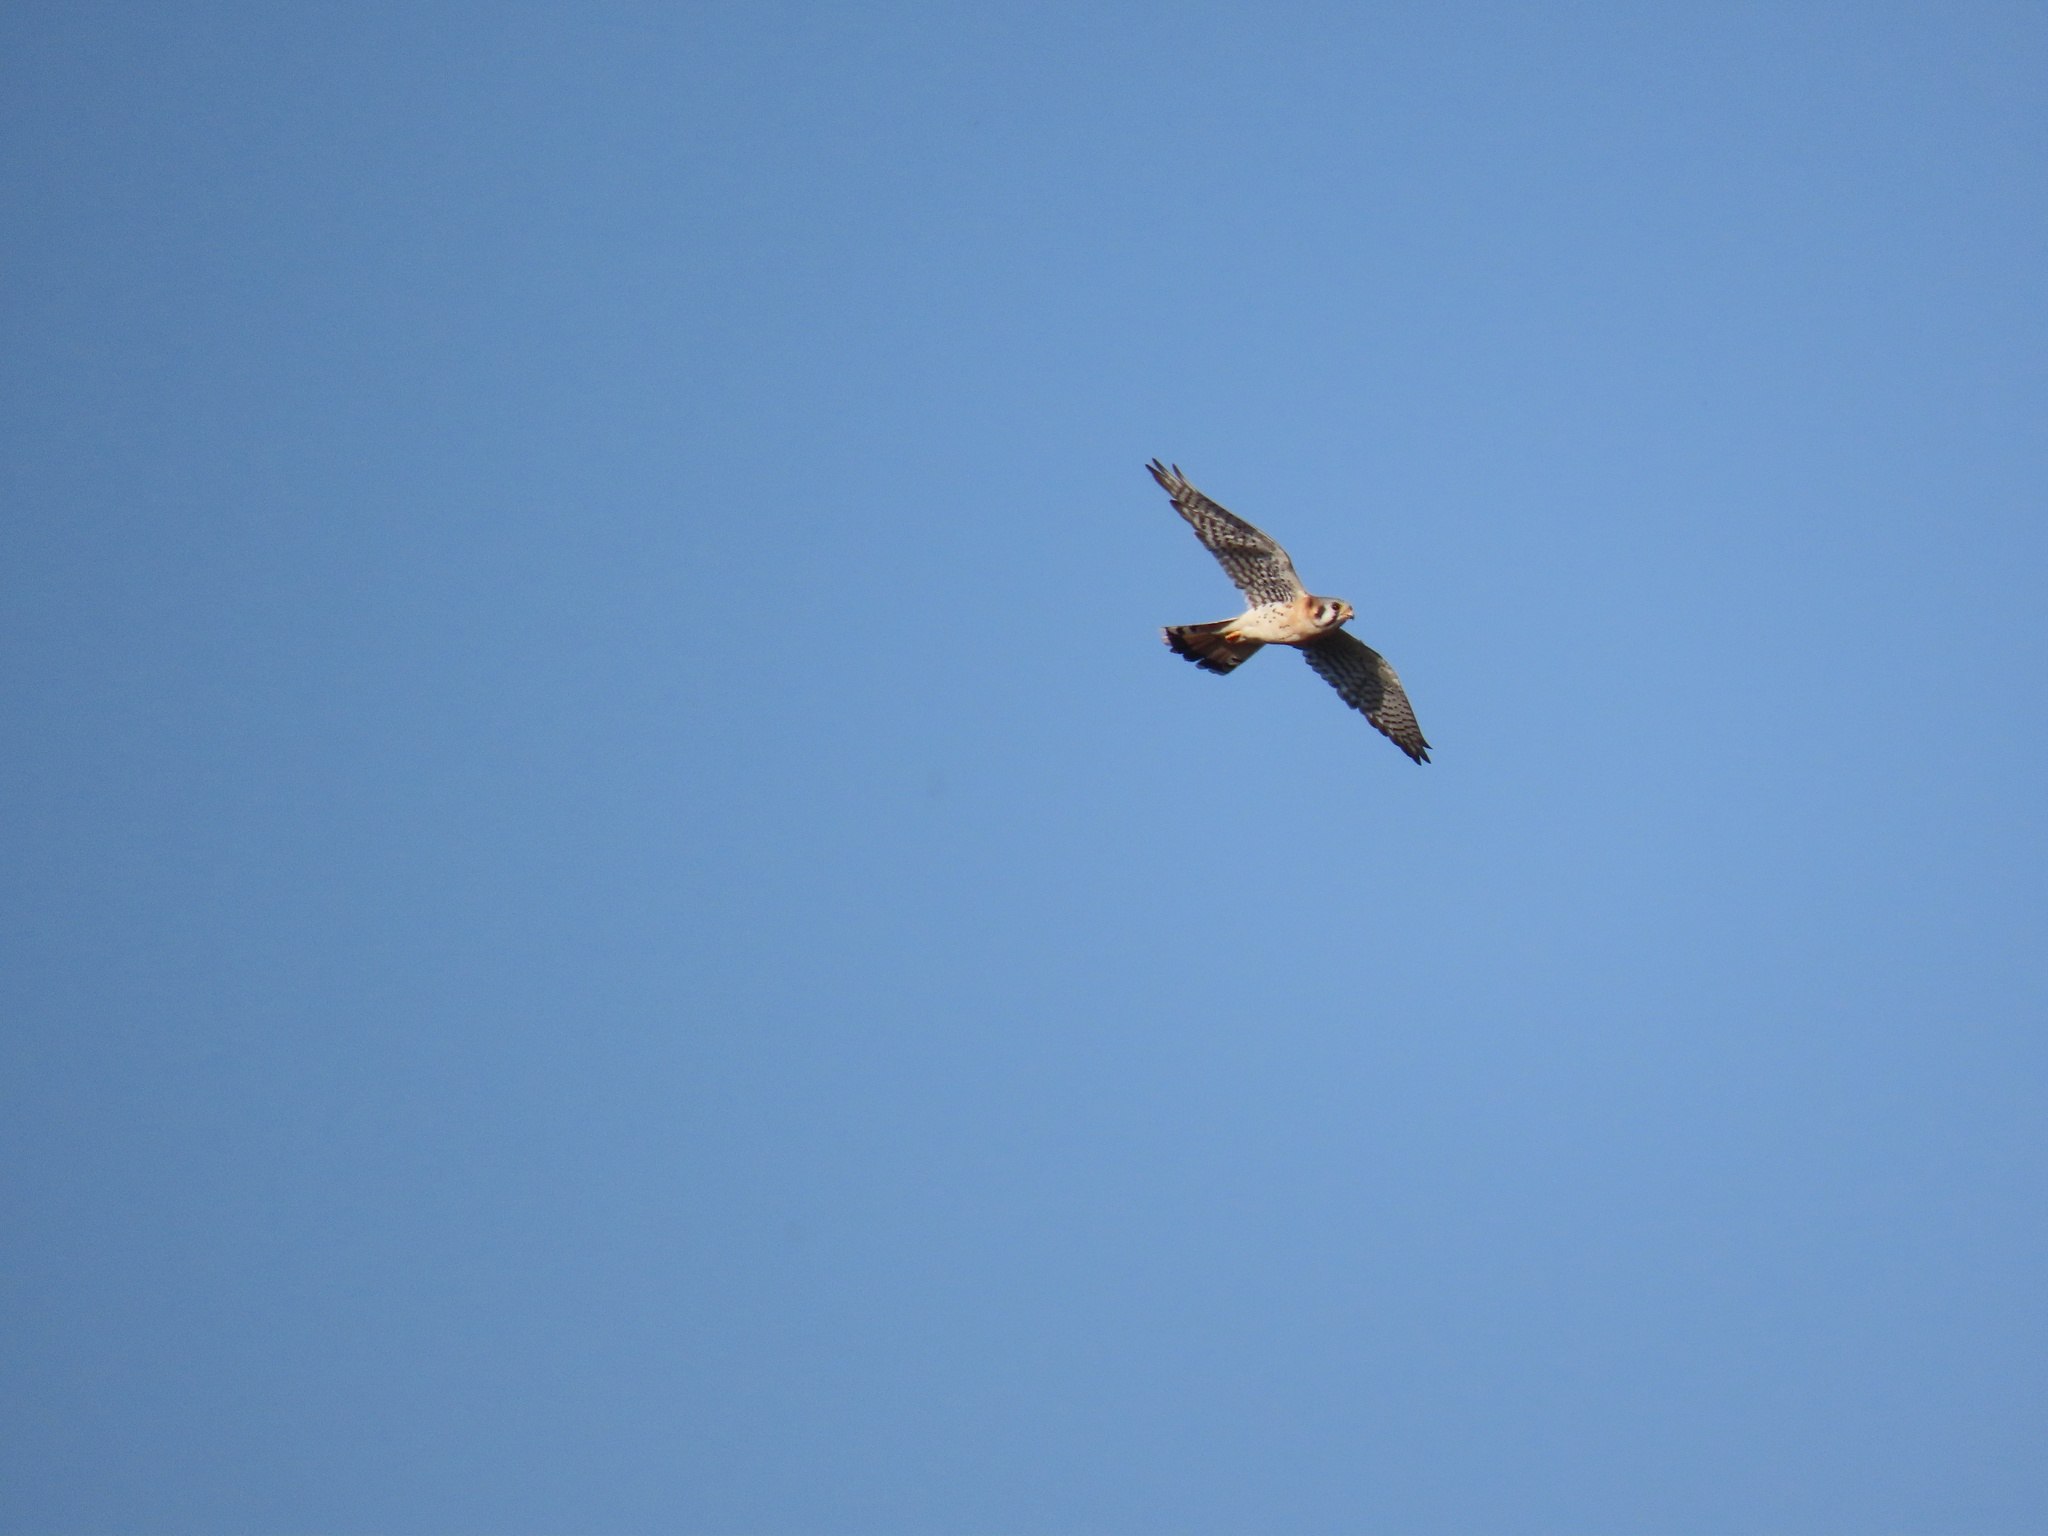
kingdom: Animalia
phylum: Chordata
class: Aves
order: Falconiformes
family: Falconidae
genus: Falco
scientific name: Falco sparverius
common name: American kestrel
